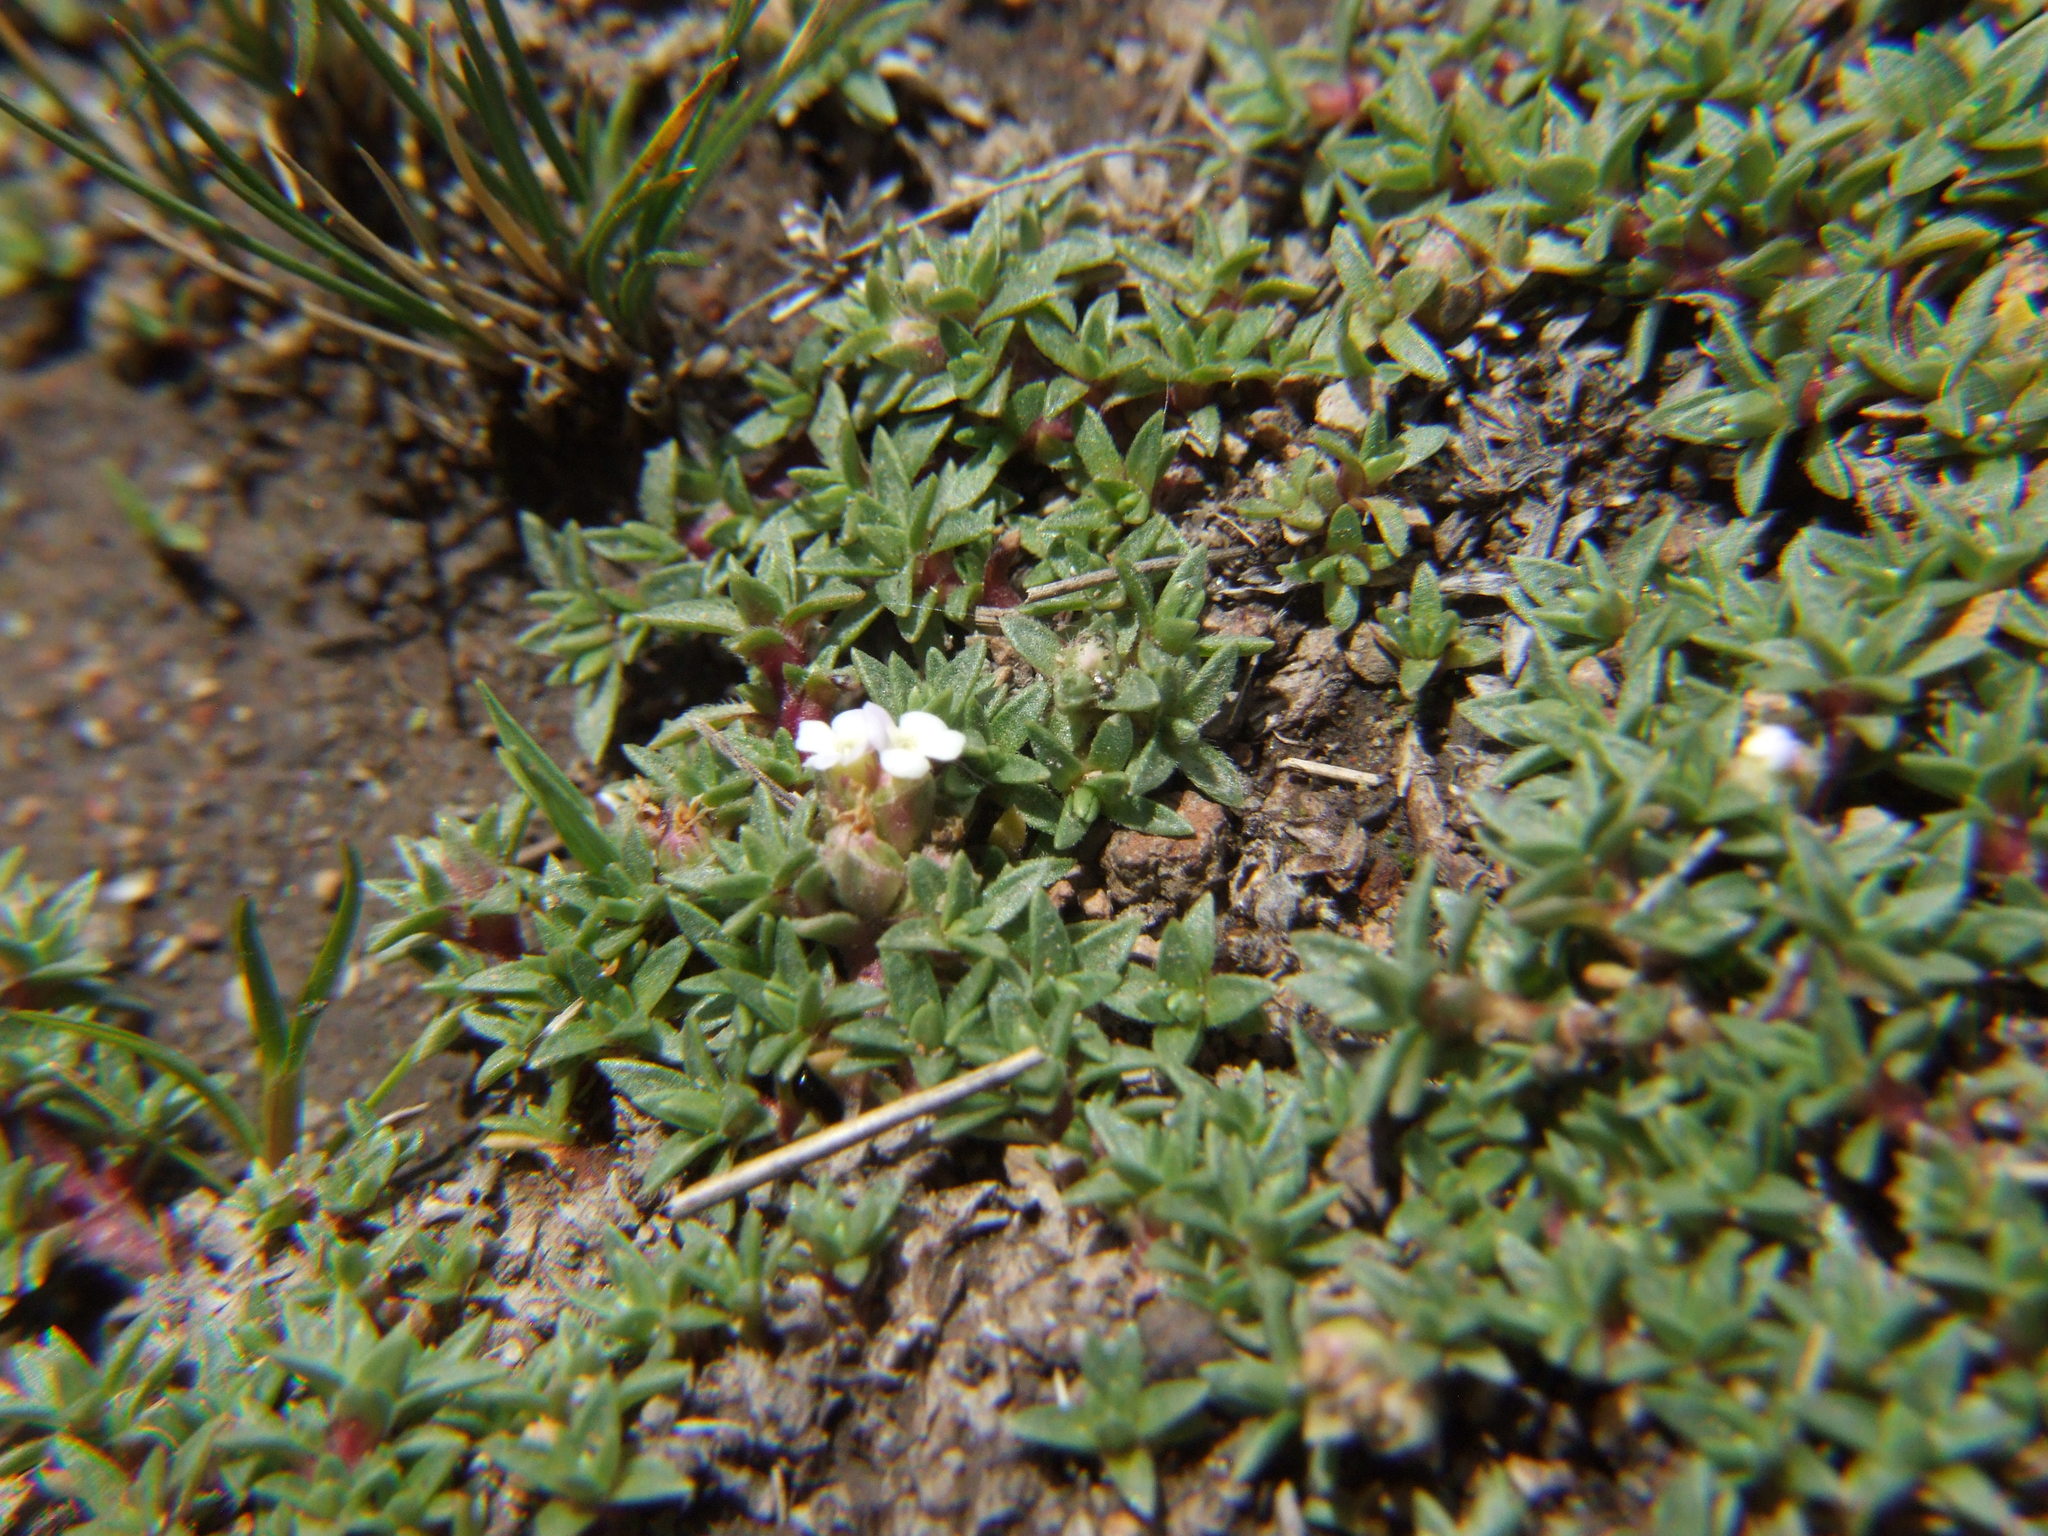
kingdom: Plantae
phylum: Tracheophyta
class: Magnoliopsida
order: Lamiales
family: Verbenaceae
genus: Junellia
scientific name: Junellia minima
